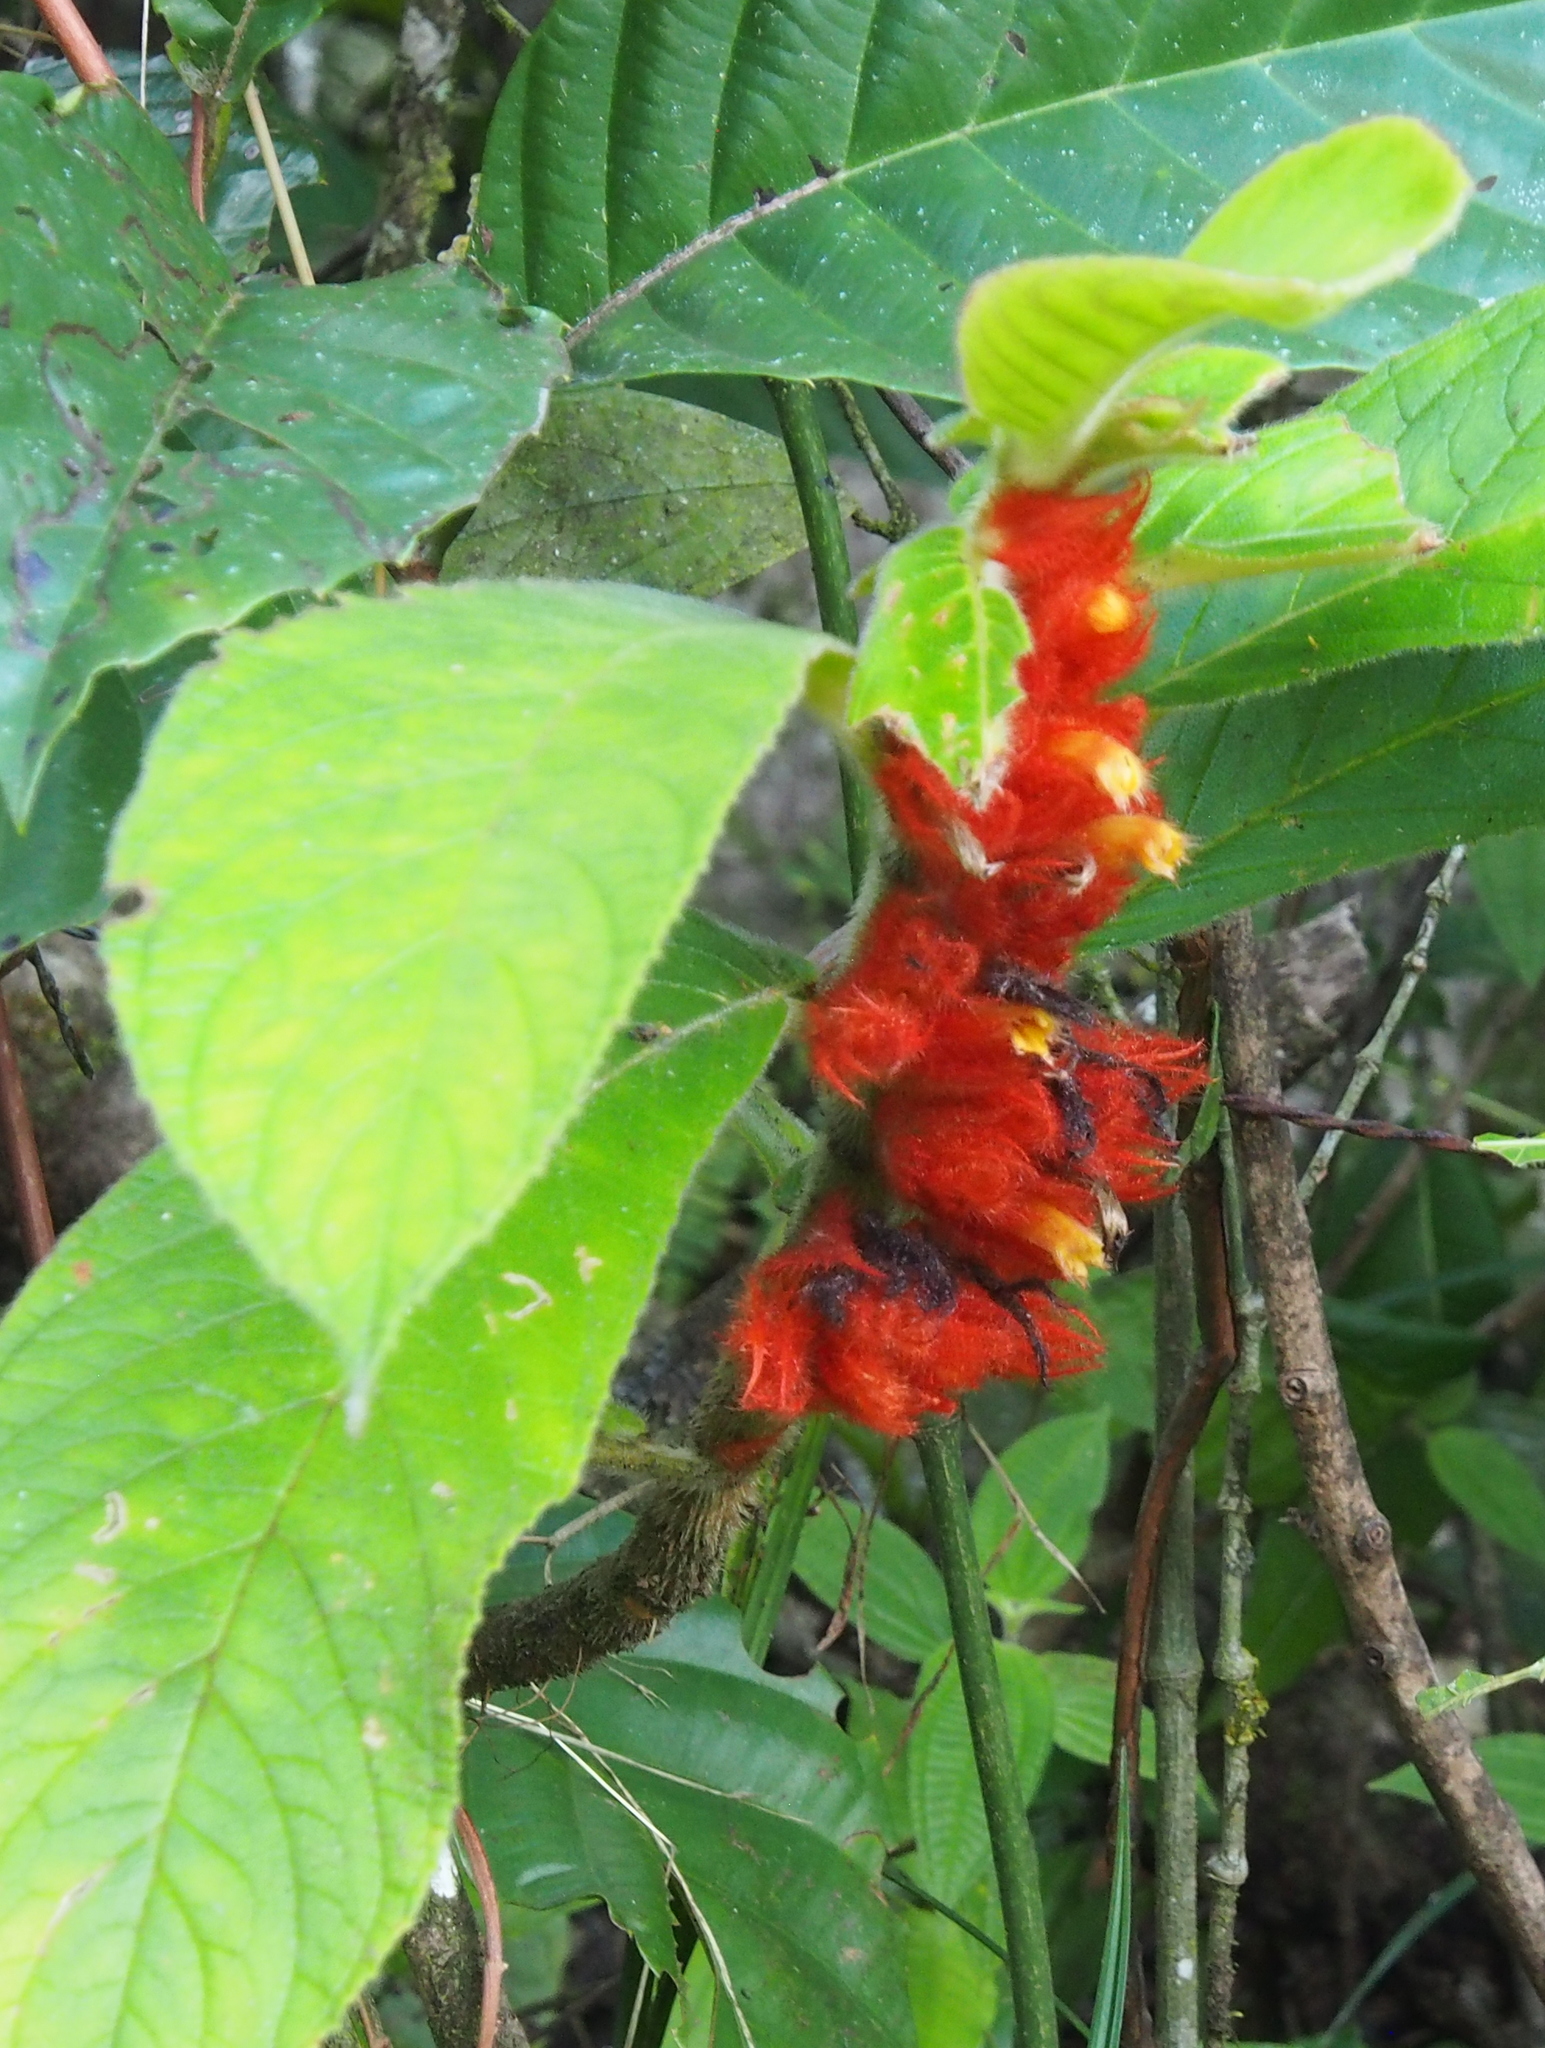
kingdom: Plantae
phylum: Tracheophyta
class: Magnoliopsida
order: Lamiales
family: Gesneriaceae
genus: Columnea
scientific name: Columnea purpurata
